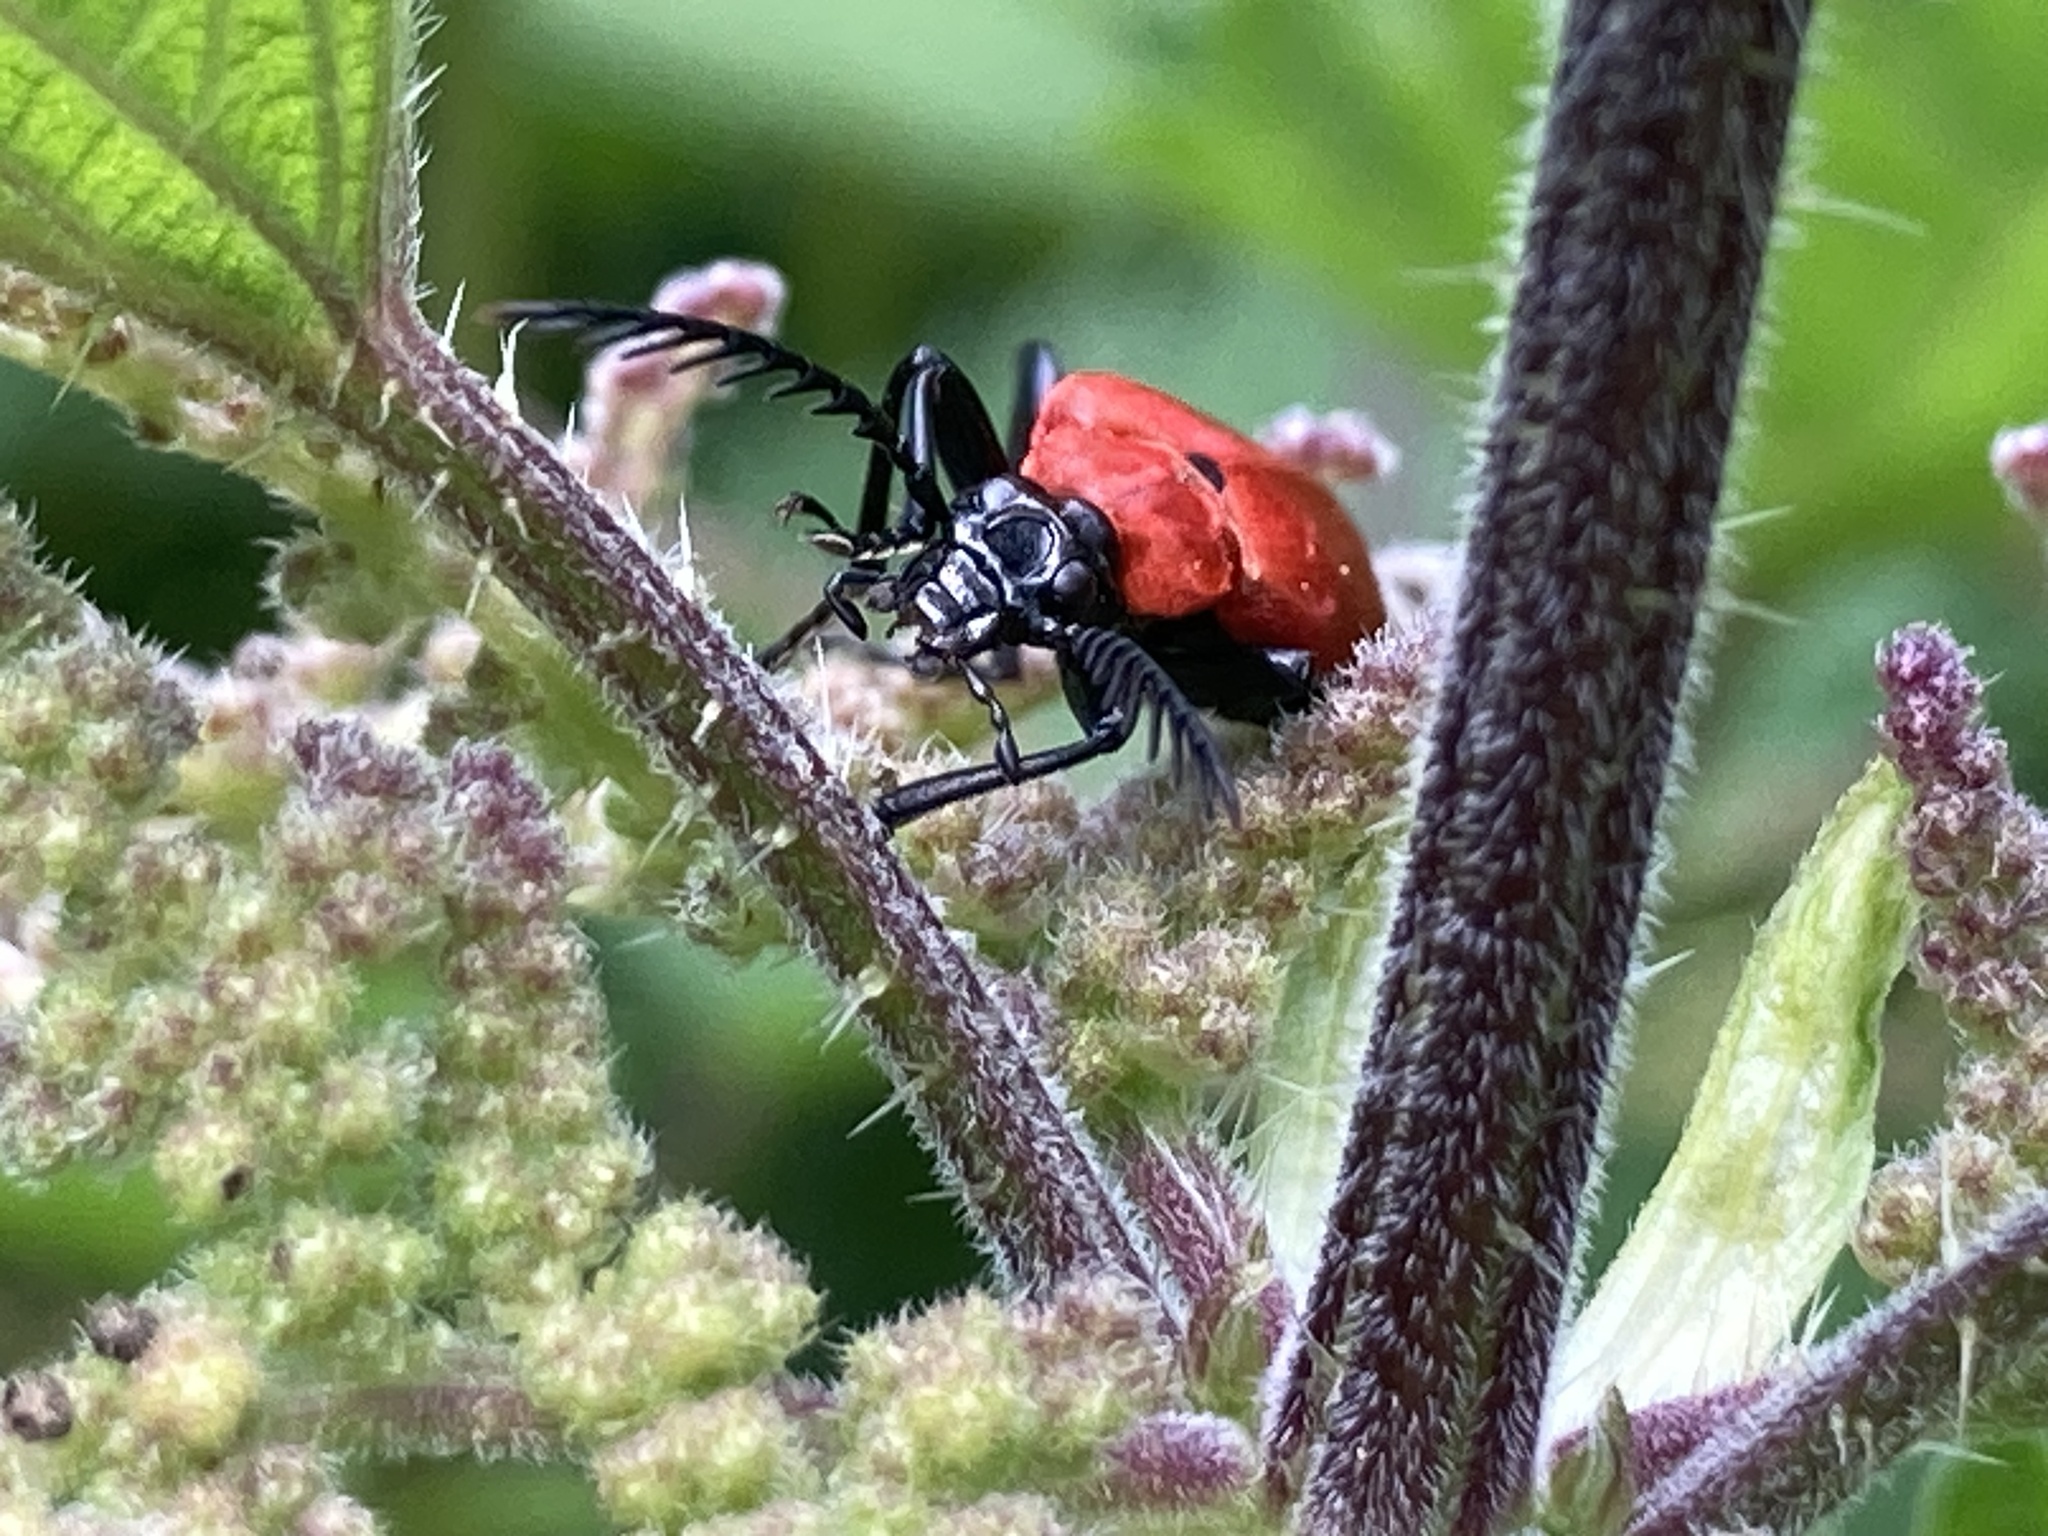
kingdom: Animalia
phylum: Arthropoda
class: Insecta
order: Coleoptera
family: Pyrochroidae
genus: Pyrochroa
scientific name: Pyrochroa coccinea
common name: Black-headed cardinal beetle
